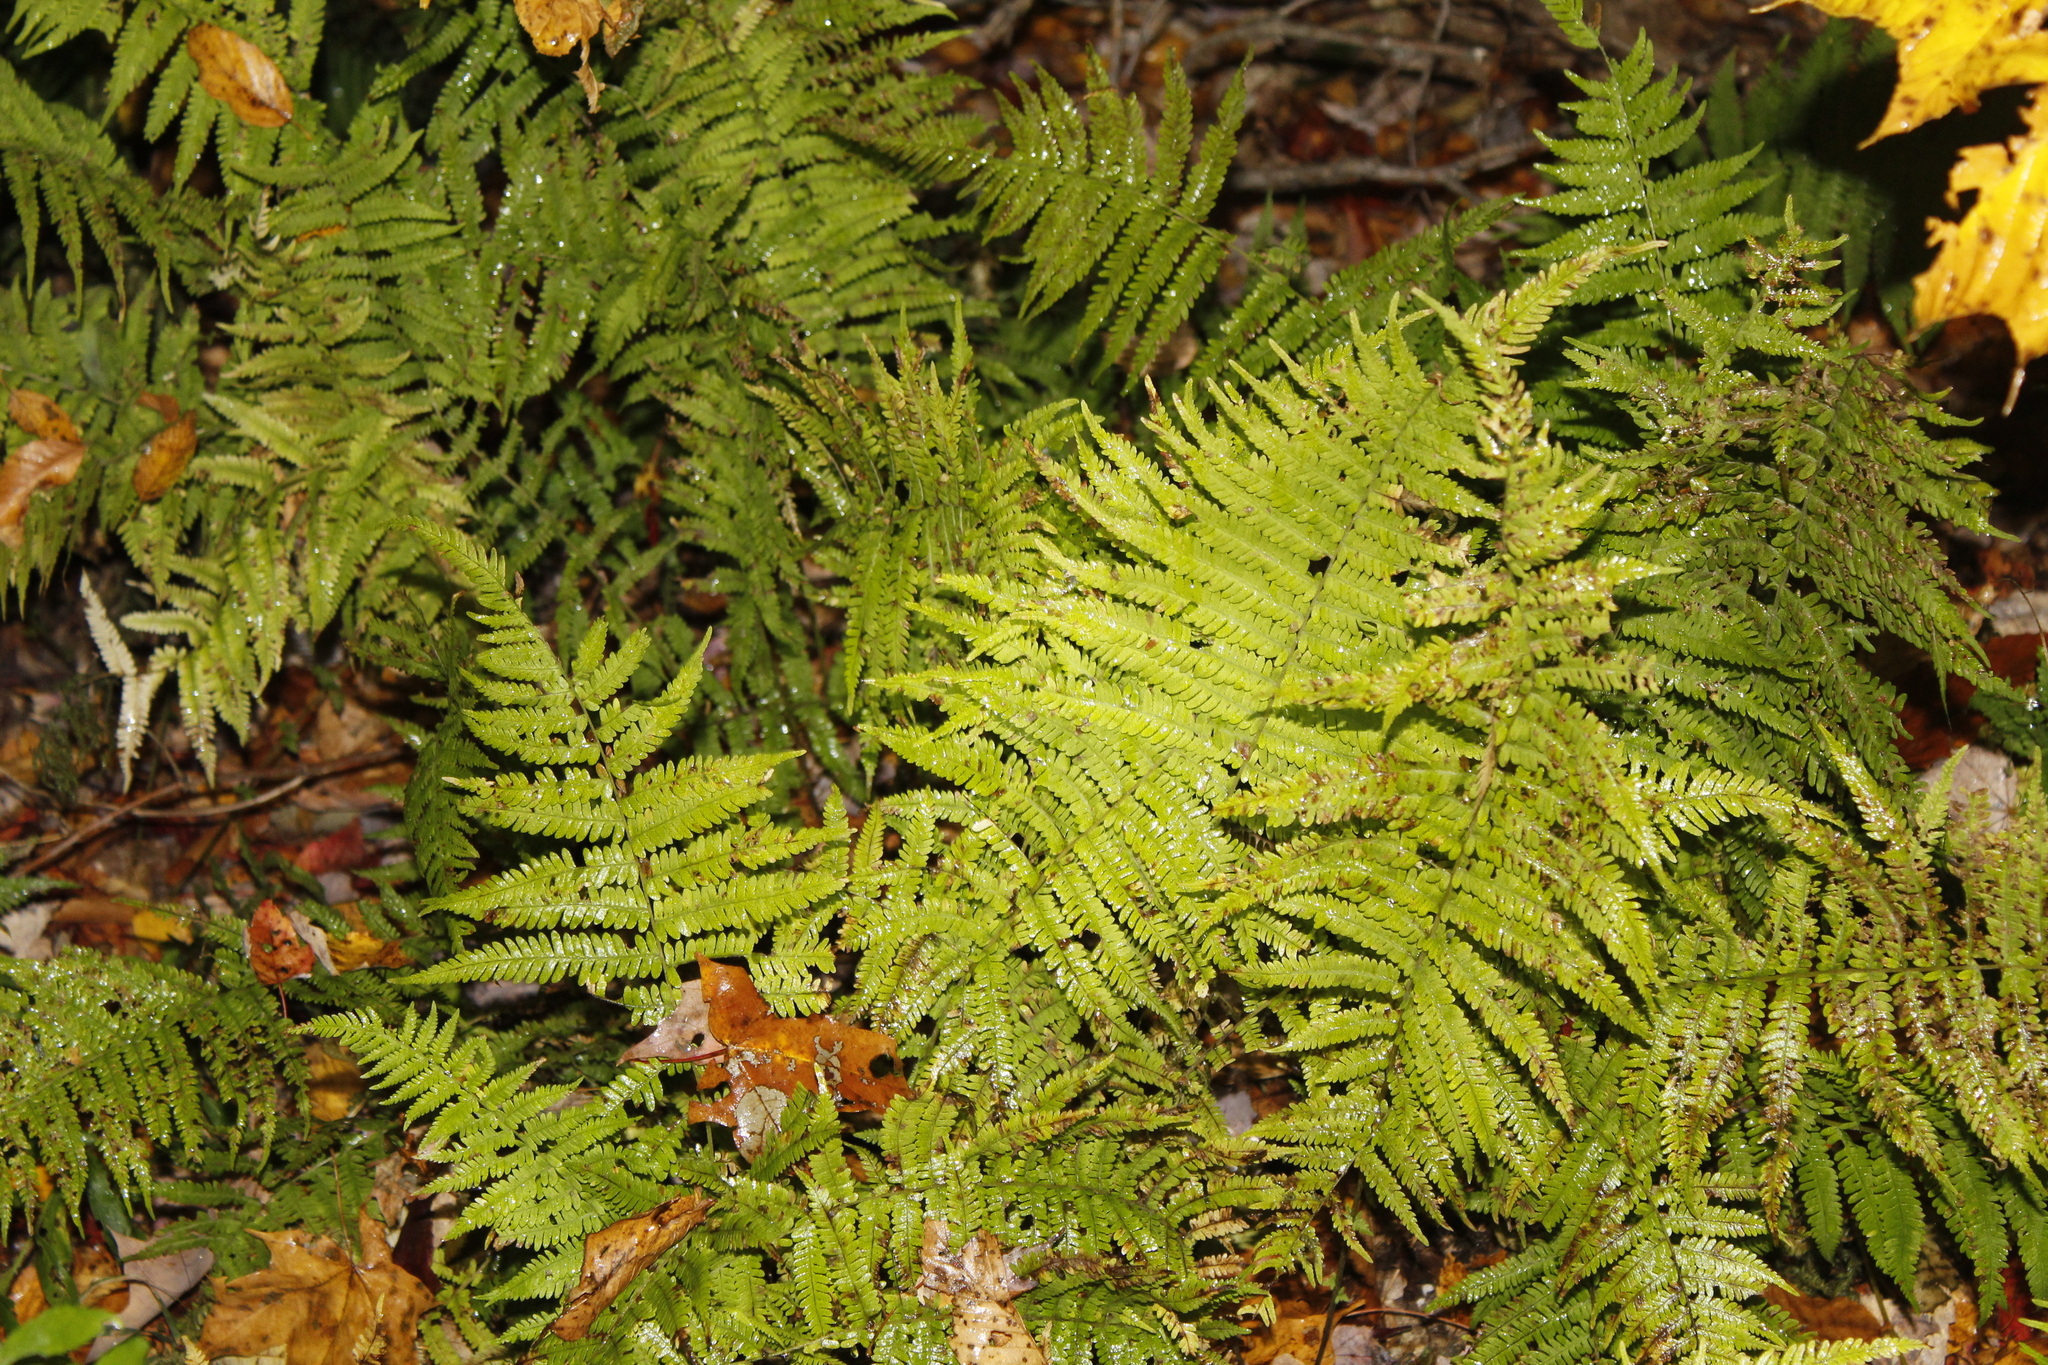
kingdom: Plantae
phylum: Tracheophyta
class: Polypodiopsida
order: Polypodiales
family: Thelypteridaceae
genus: Amauropelta
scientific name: Amauropelta noveboracensis
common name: New york fern
